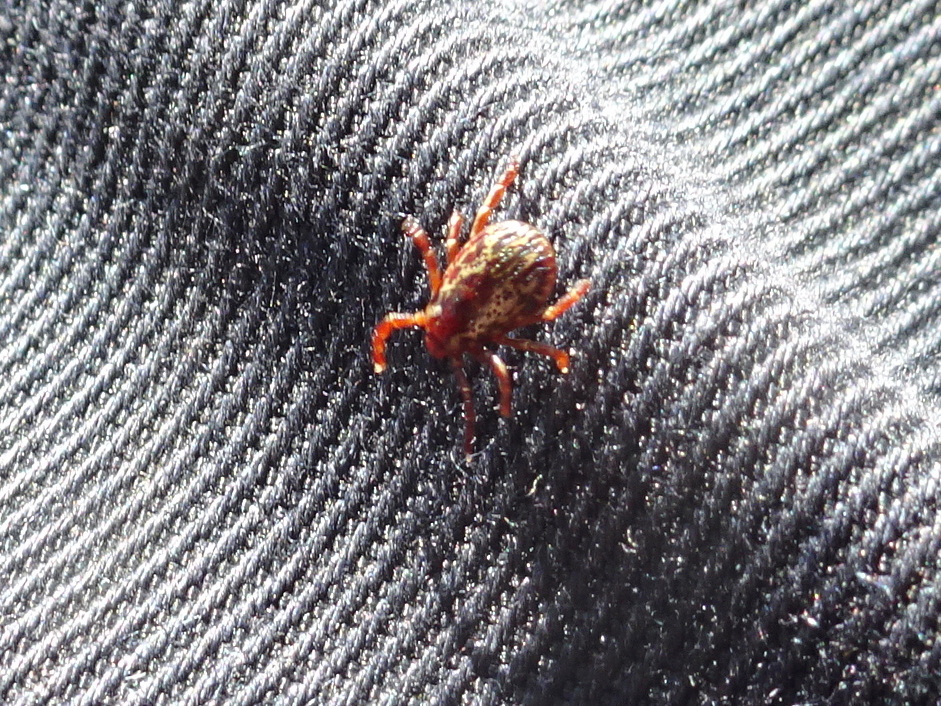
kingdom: Animalia
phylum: Arthropoda
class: Arachnida
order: Ixodida
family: Ixodidae
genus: Dermacentor
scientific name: Dermacentor variabilis
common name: American dog tick
